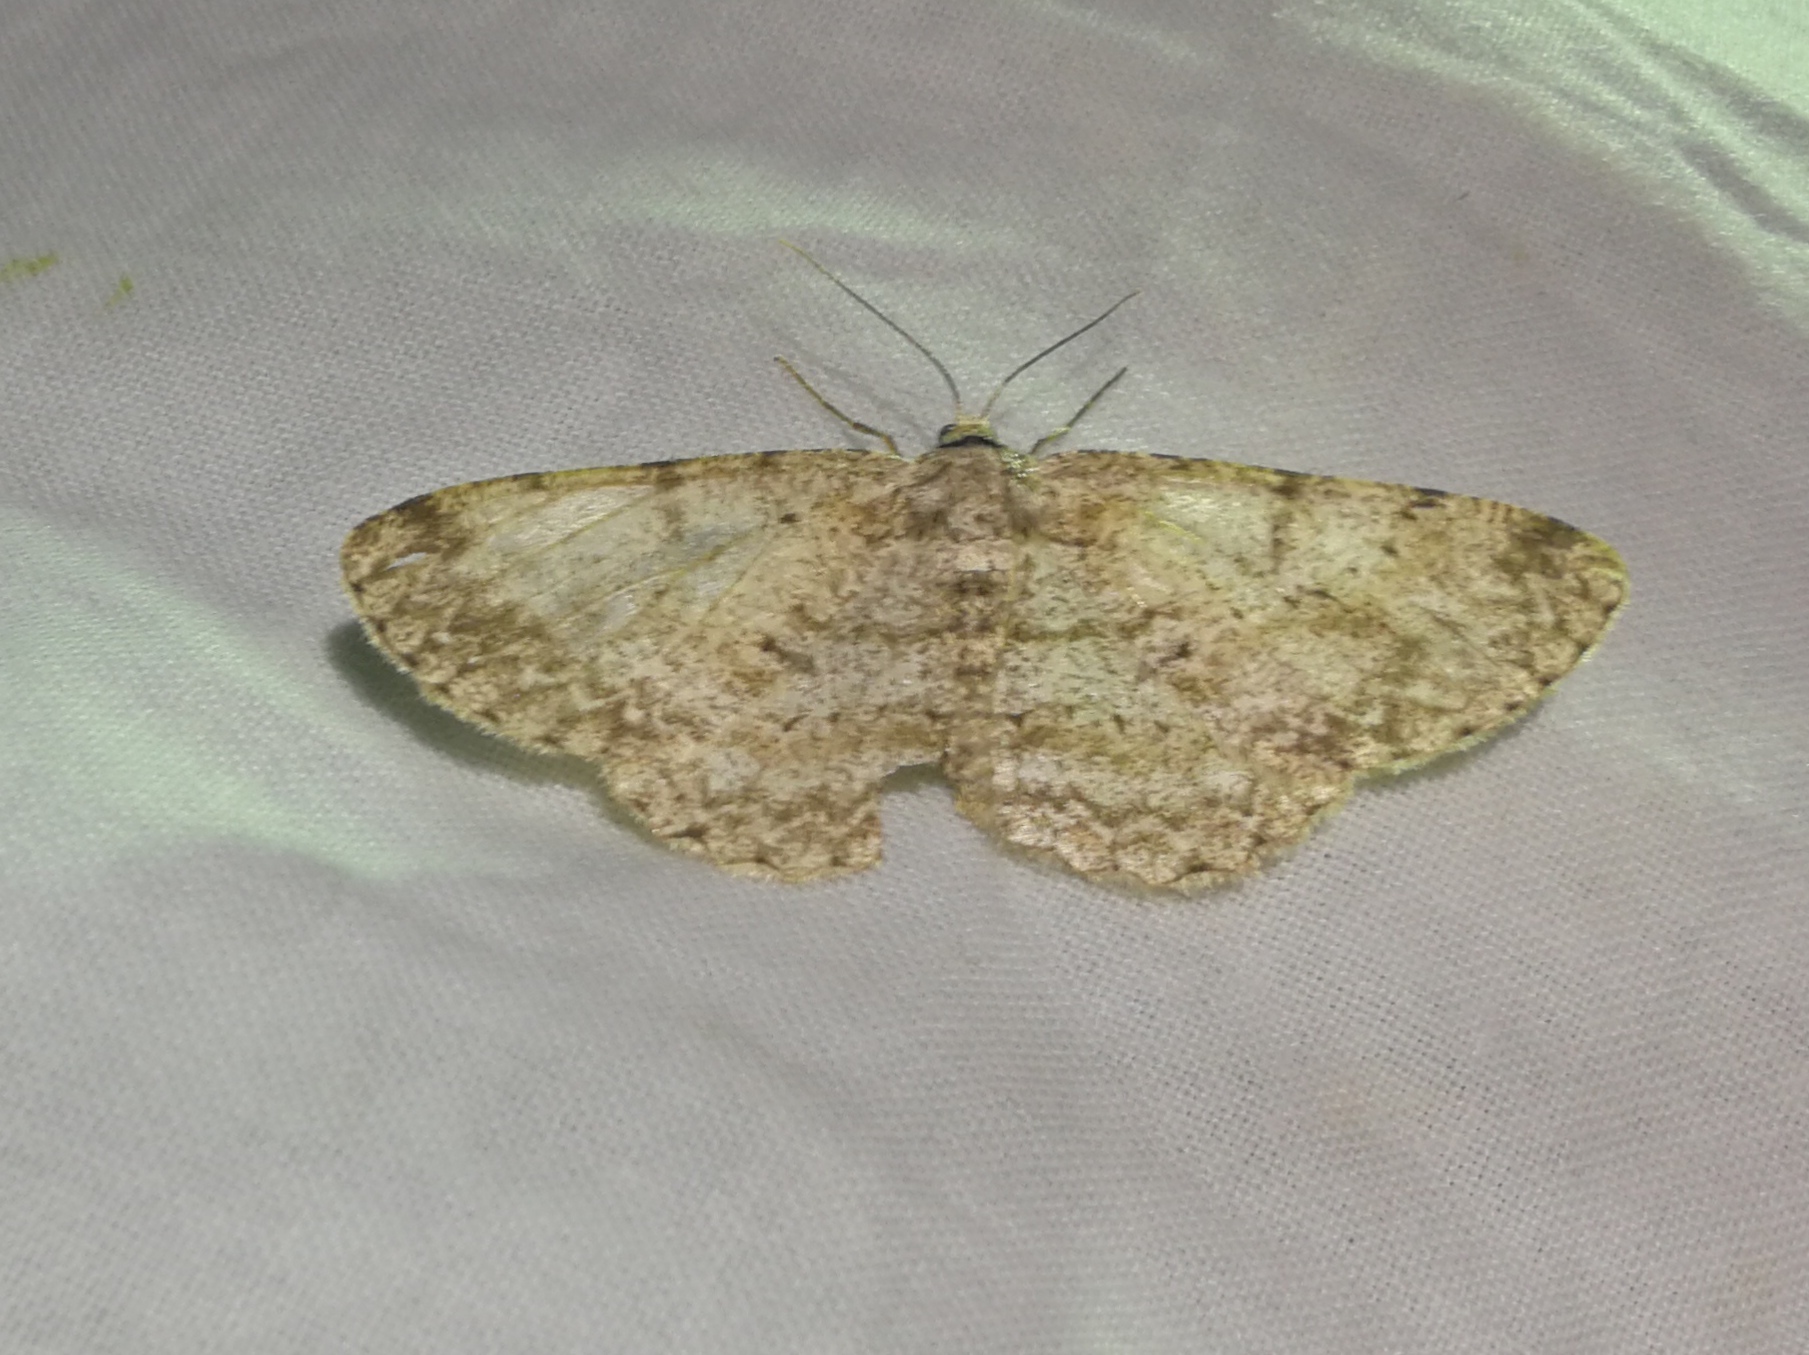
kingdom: Animalia
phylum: Arthropoda
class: Insecta
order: Lepidoptera
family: Geometridae
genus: Hypomecis
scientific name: Hypomecis punctinalis
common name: Pale oak beauty
